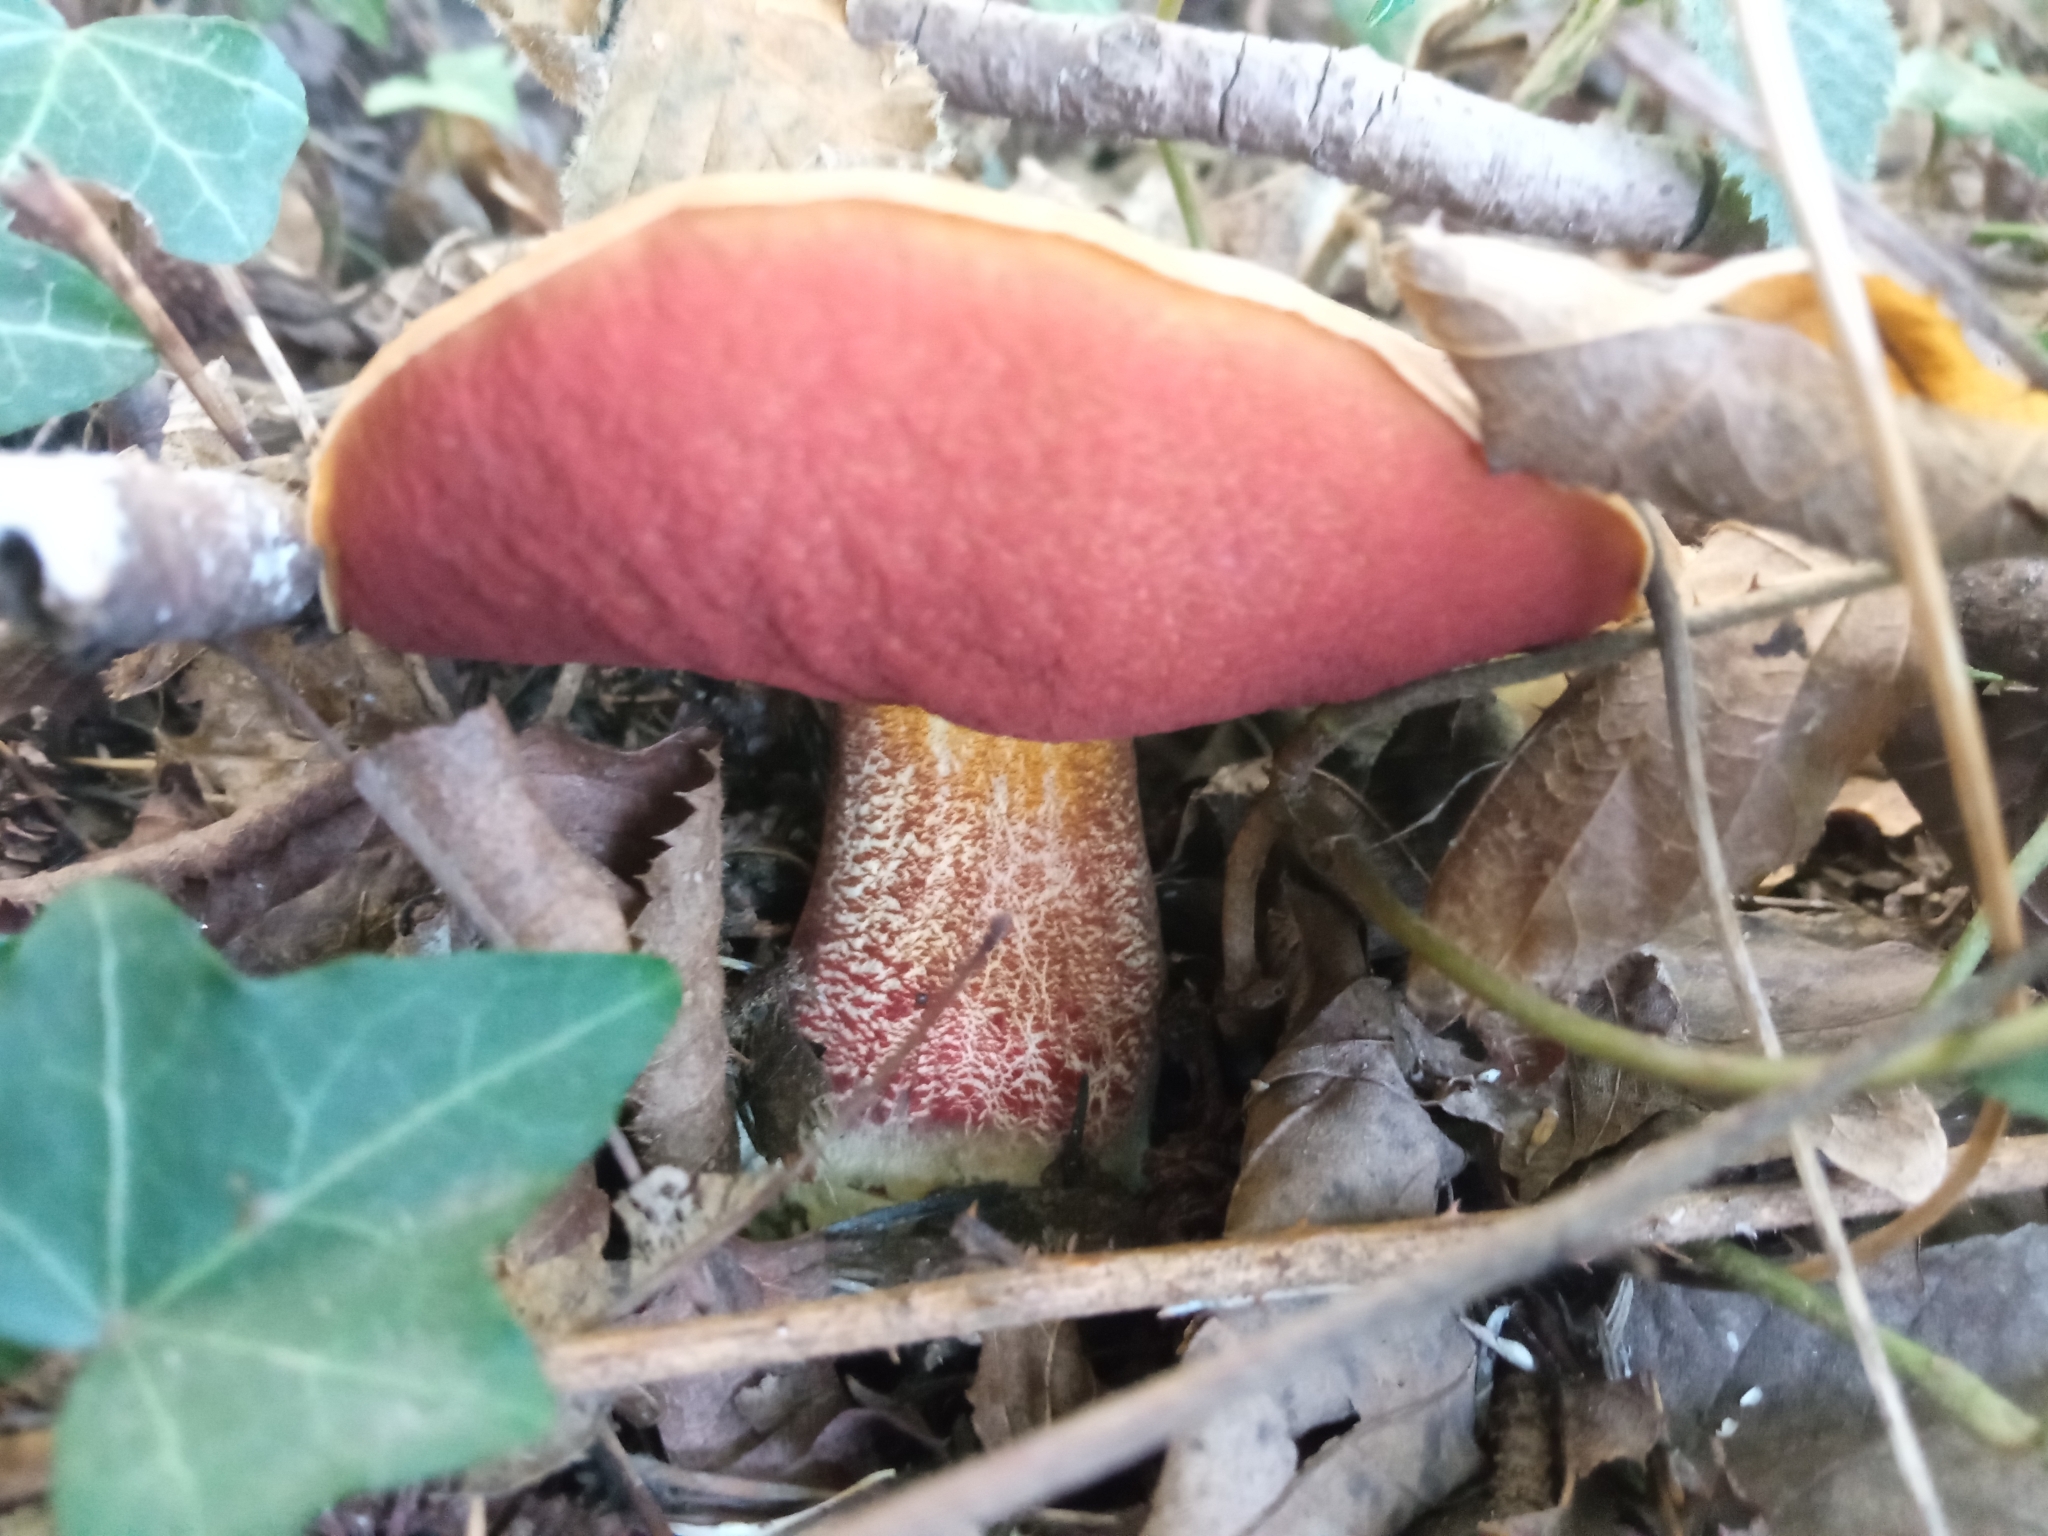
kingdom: Fungi
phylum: Basidiomycota
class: Agaricomycetes
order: Boletales
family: Boletaceae
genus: Neoboletus
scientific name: Neoboletus erythropus
